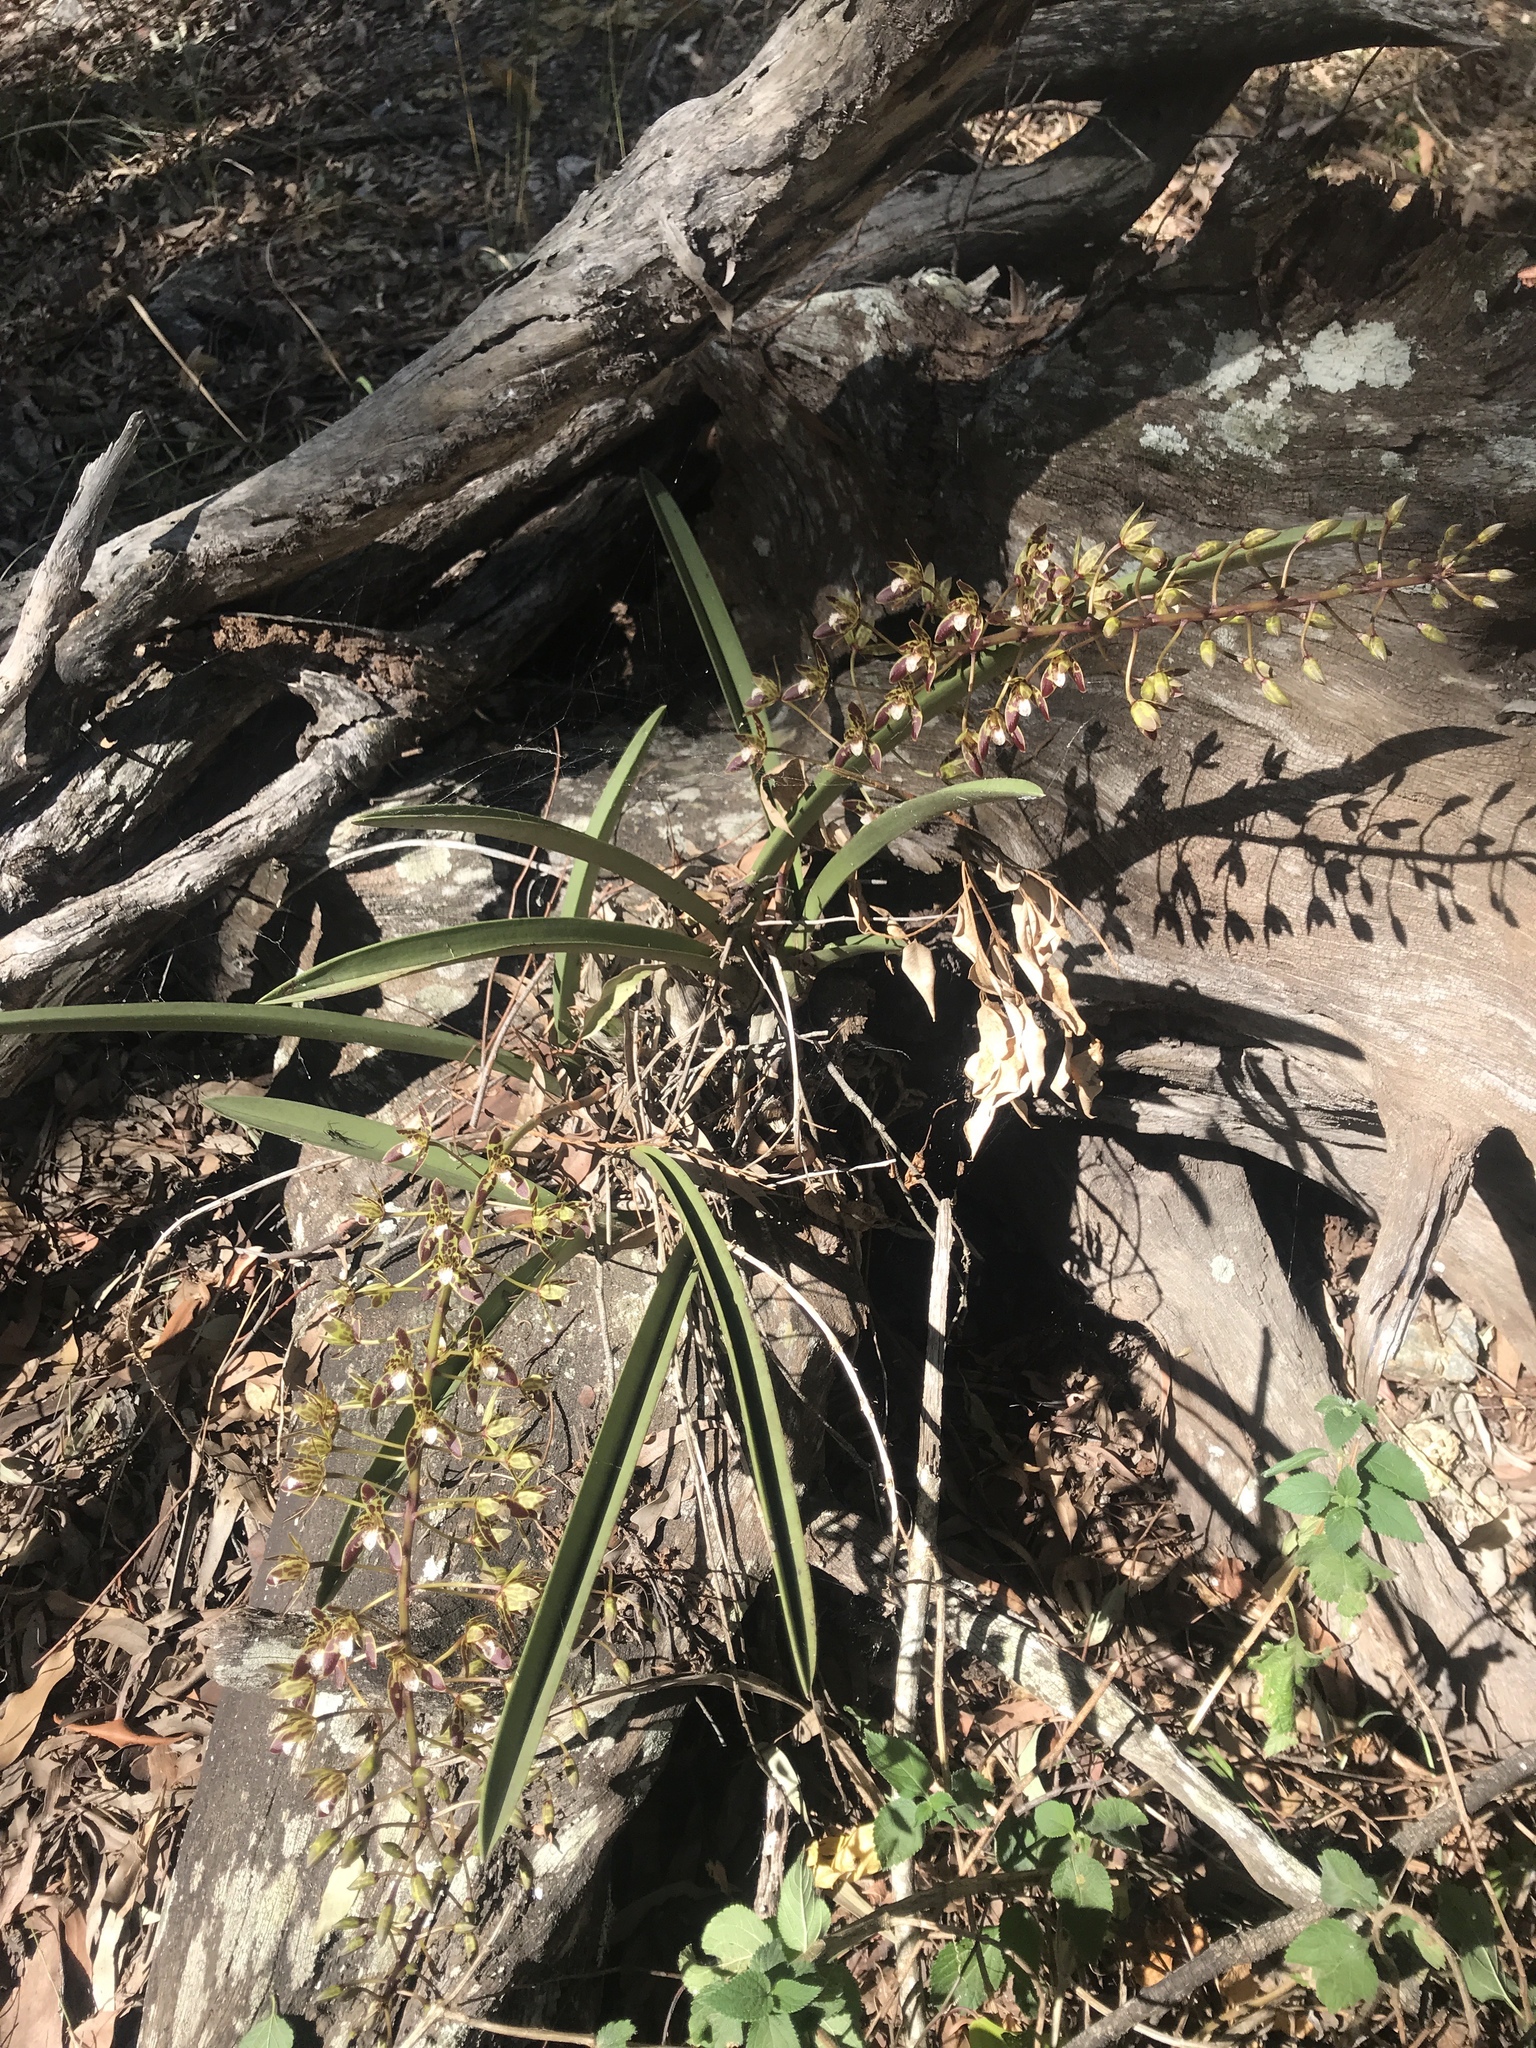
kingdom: Plantae
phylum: Tracheophyta
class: Liliopsida
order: Asparagales
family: Orchidaceae
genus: Cymbidium
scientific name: Cymbidium canaliculatum
